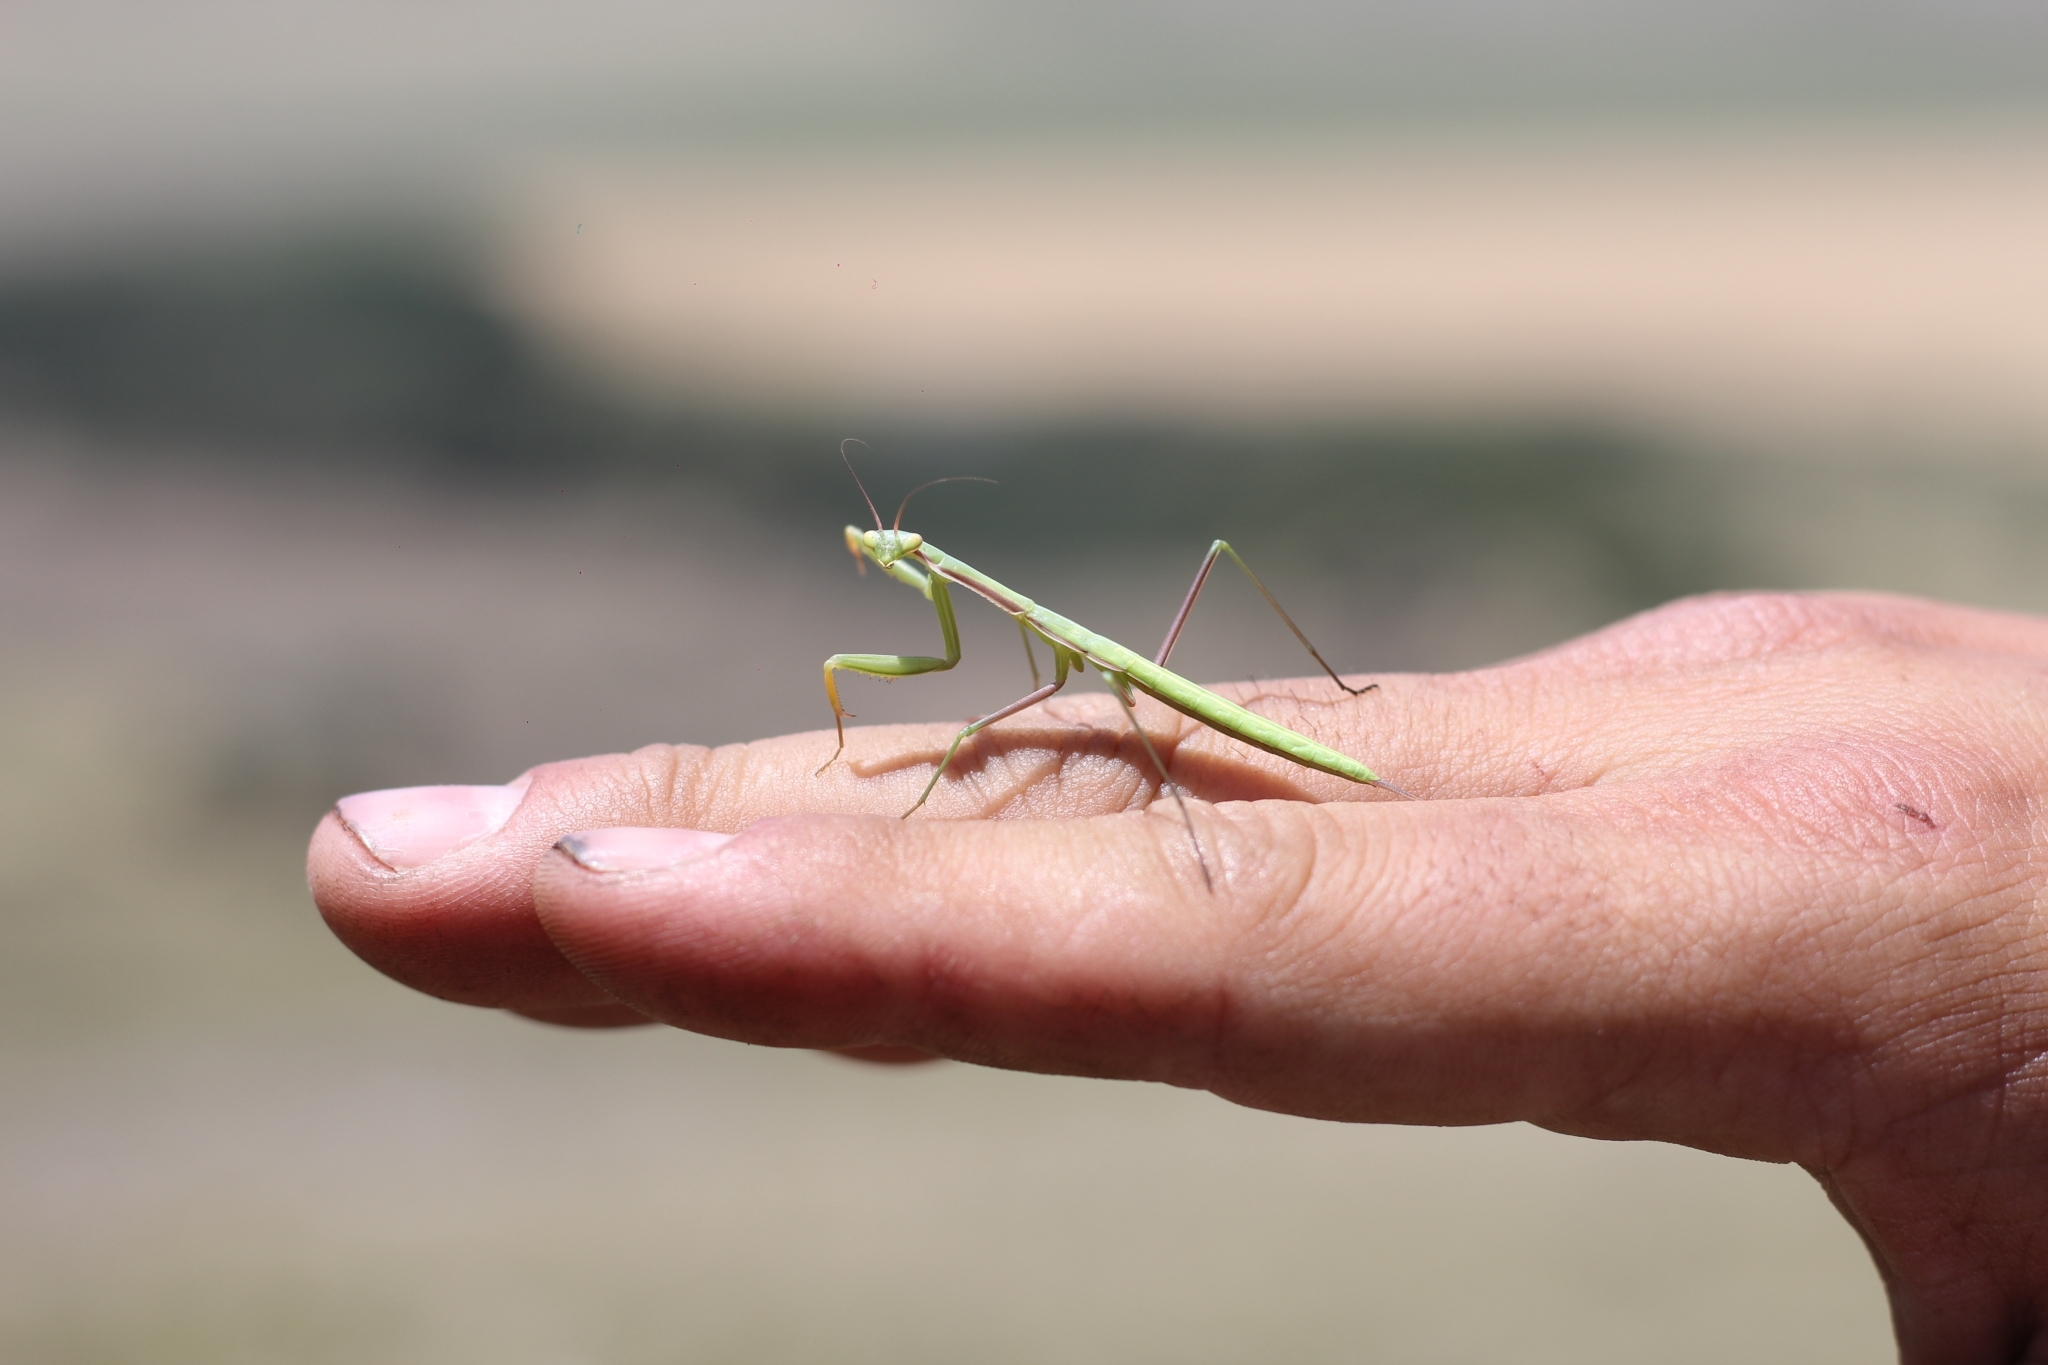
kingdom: Animalia
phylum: Arthropoda
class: Insecta
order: Mantodea
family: Coptopterygidae
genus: Coptopteryx
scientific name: Coptopteryx argentina
